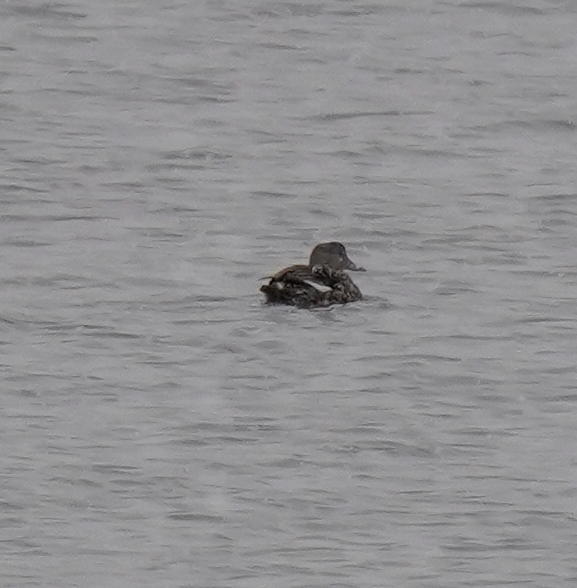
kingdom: Animalia
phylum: Chordata
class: Aves
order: Anseriformes
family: Anatidae
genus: Mareca
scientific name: Mareca strepera
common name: Gadwall
